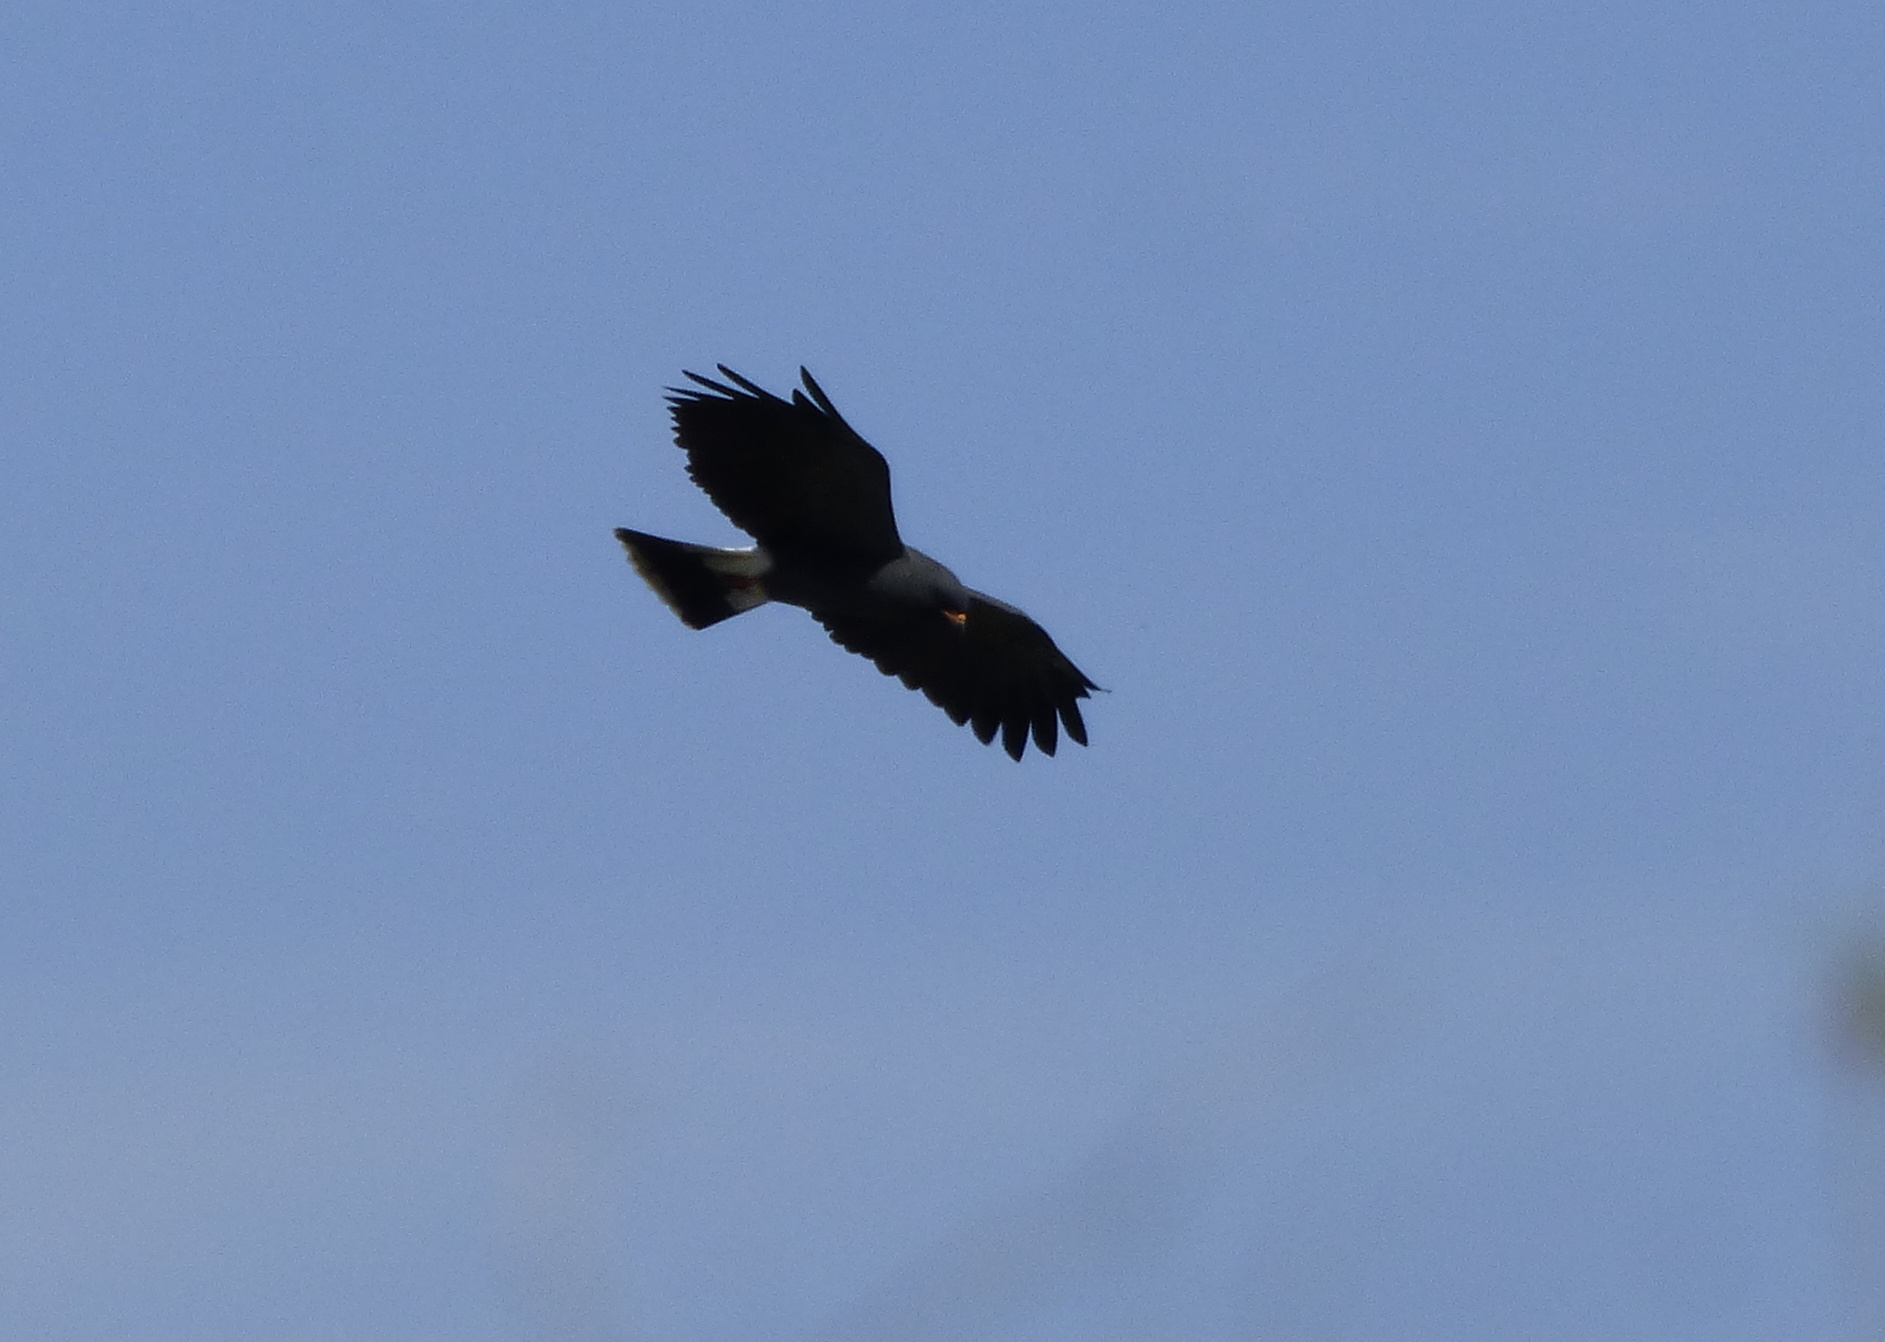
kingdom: Animalia
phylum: Chordata
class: Aves
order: Accipitriformes
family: Accipitridae
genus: Rostrhamus
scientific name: Rostrhamus sociabilis
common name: Snail kite
